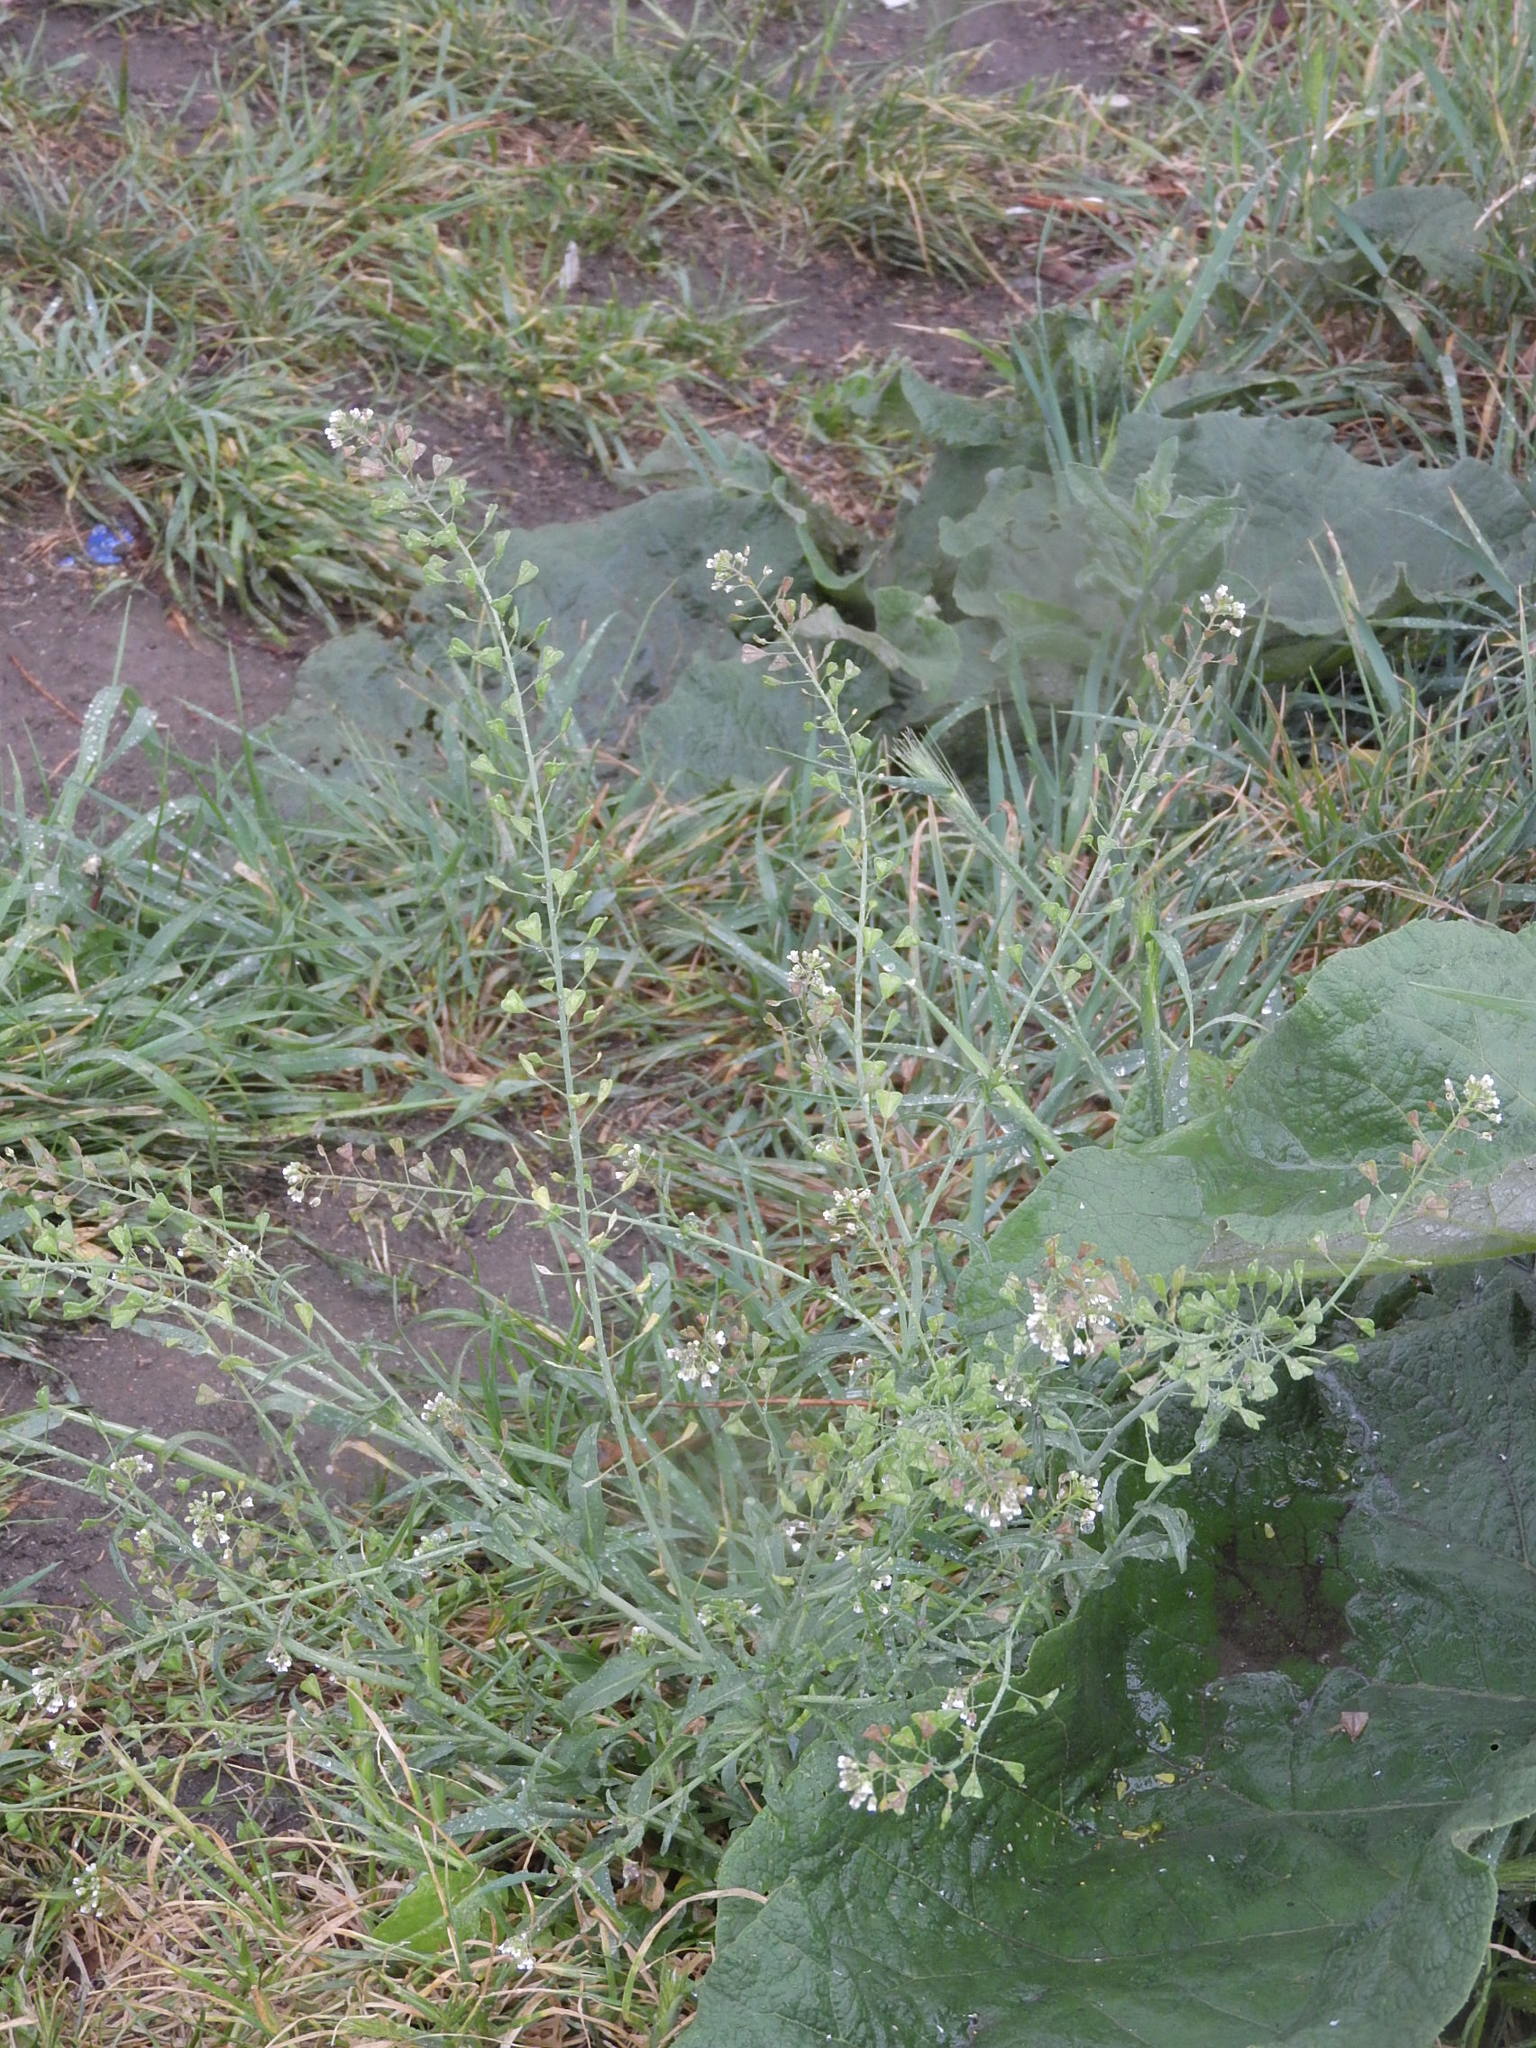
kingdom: Plantae
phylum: Tracheophyta
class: Magnoliopsida
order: Brassicales
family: Brassicaceae
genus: Capsella
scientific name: Capsella bursa-pastoris
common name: Shepherd's purse
